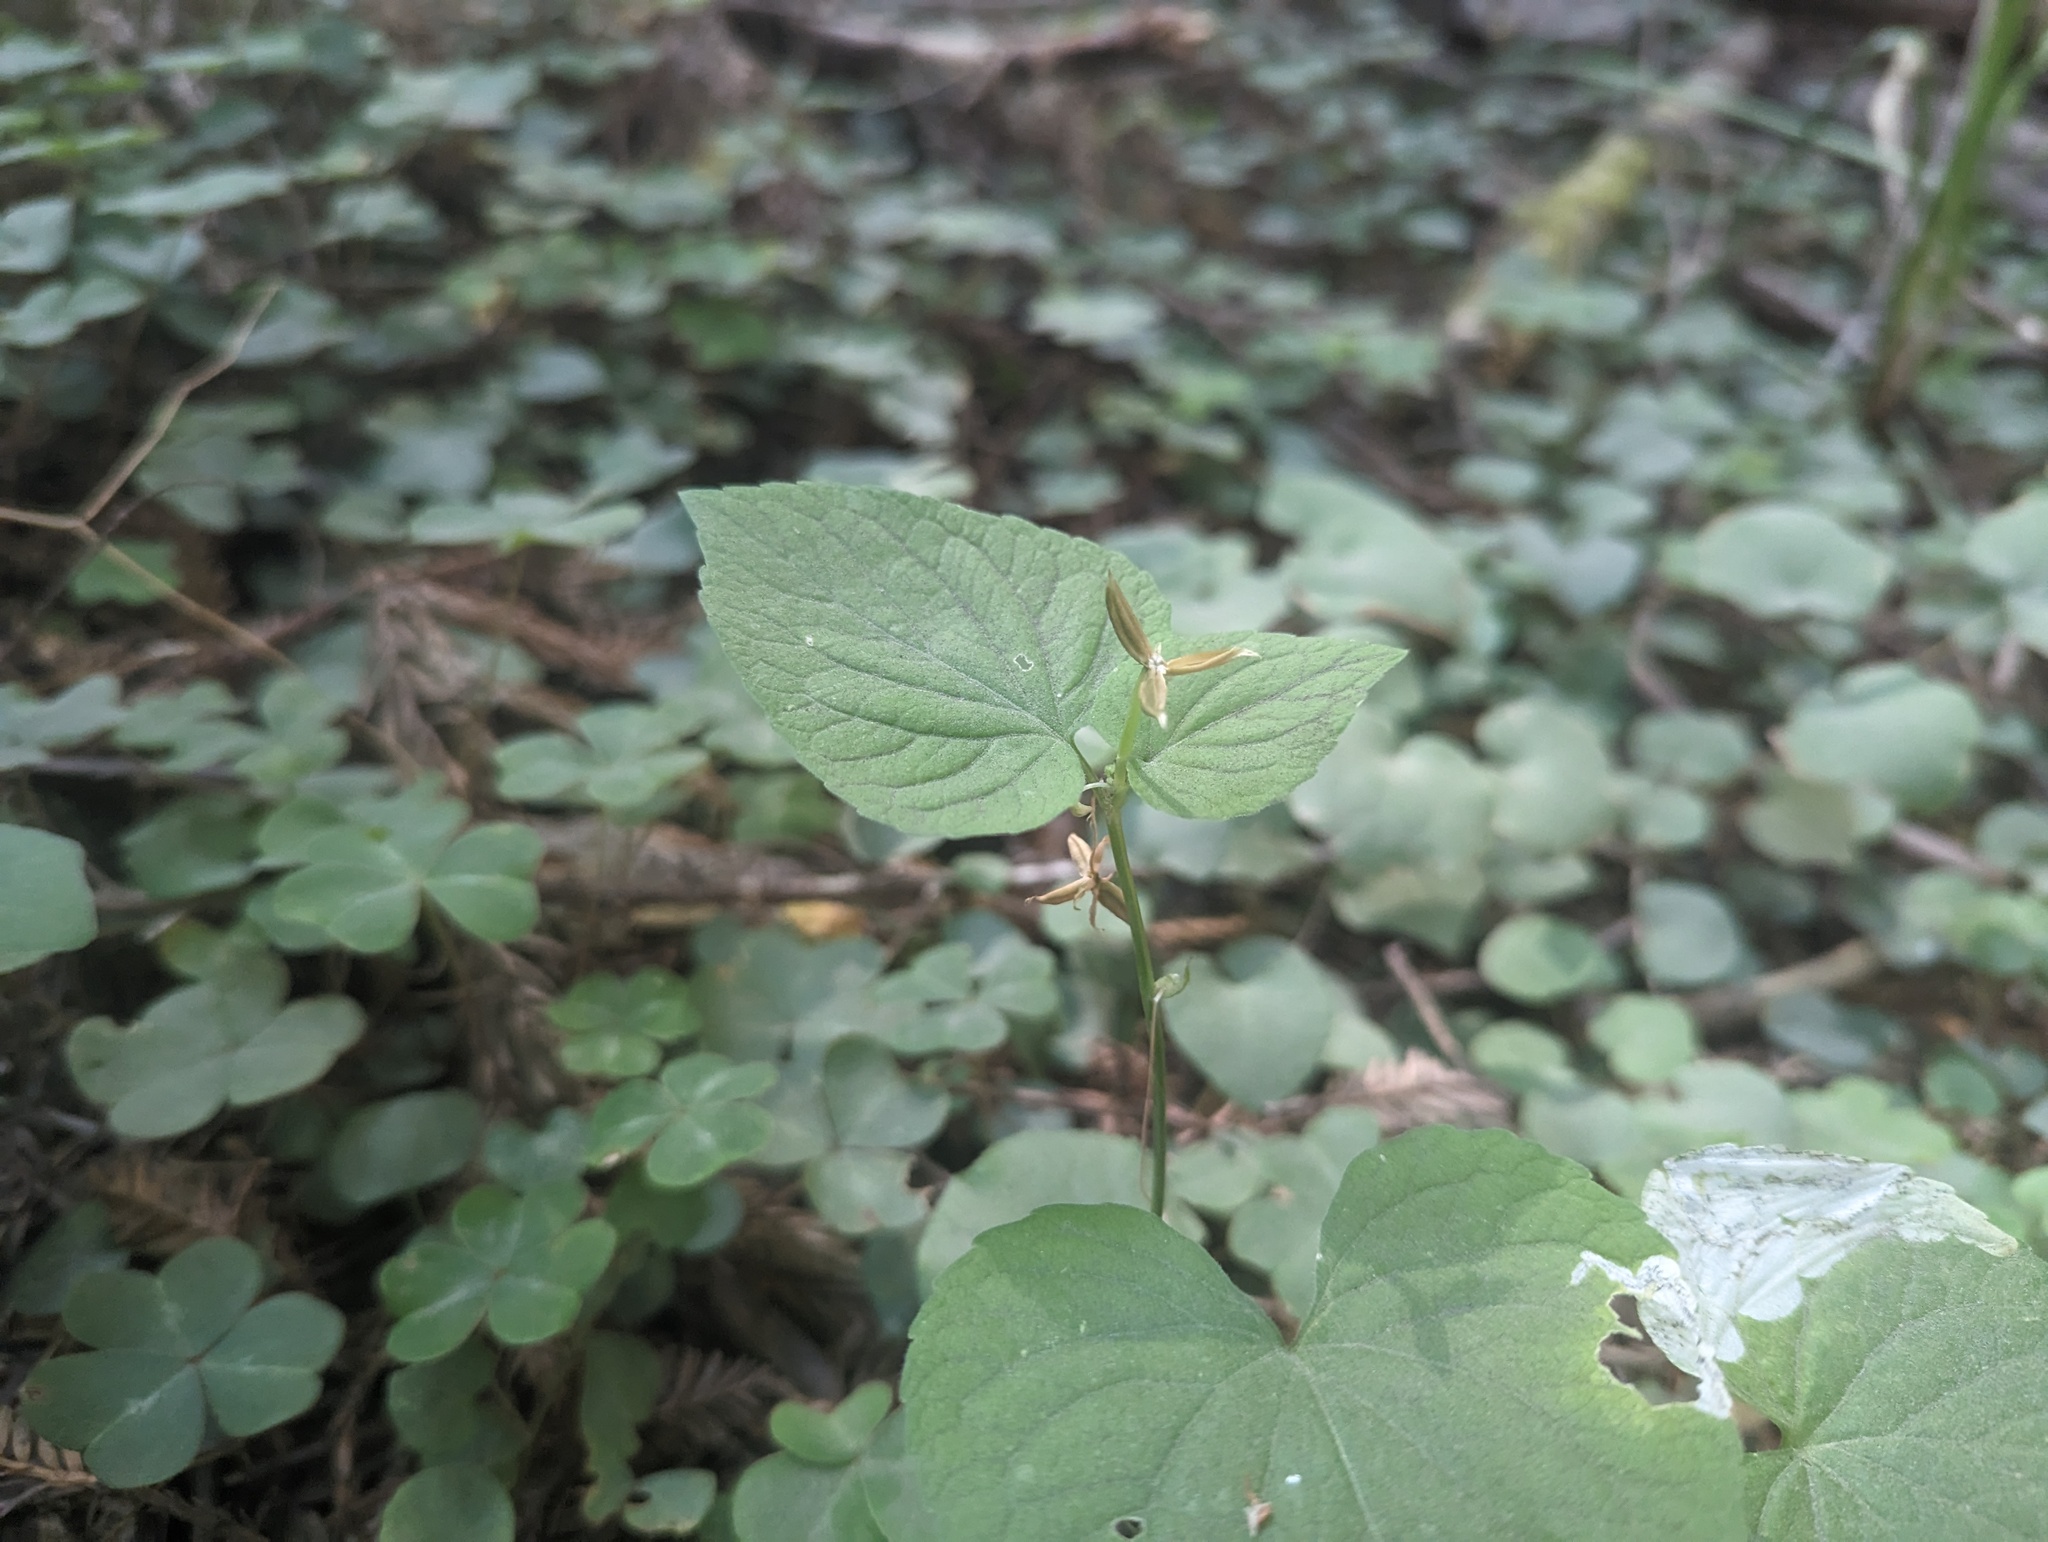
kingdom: Plantae
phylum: Tracheophyta
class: Magnoliopsida
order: Malpighiales
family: Violaceae
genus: Viola
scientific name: Viola glabella
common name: Stream violet
